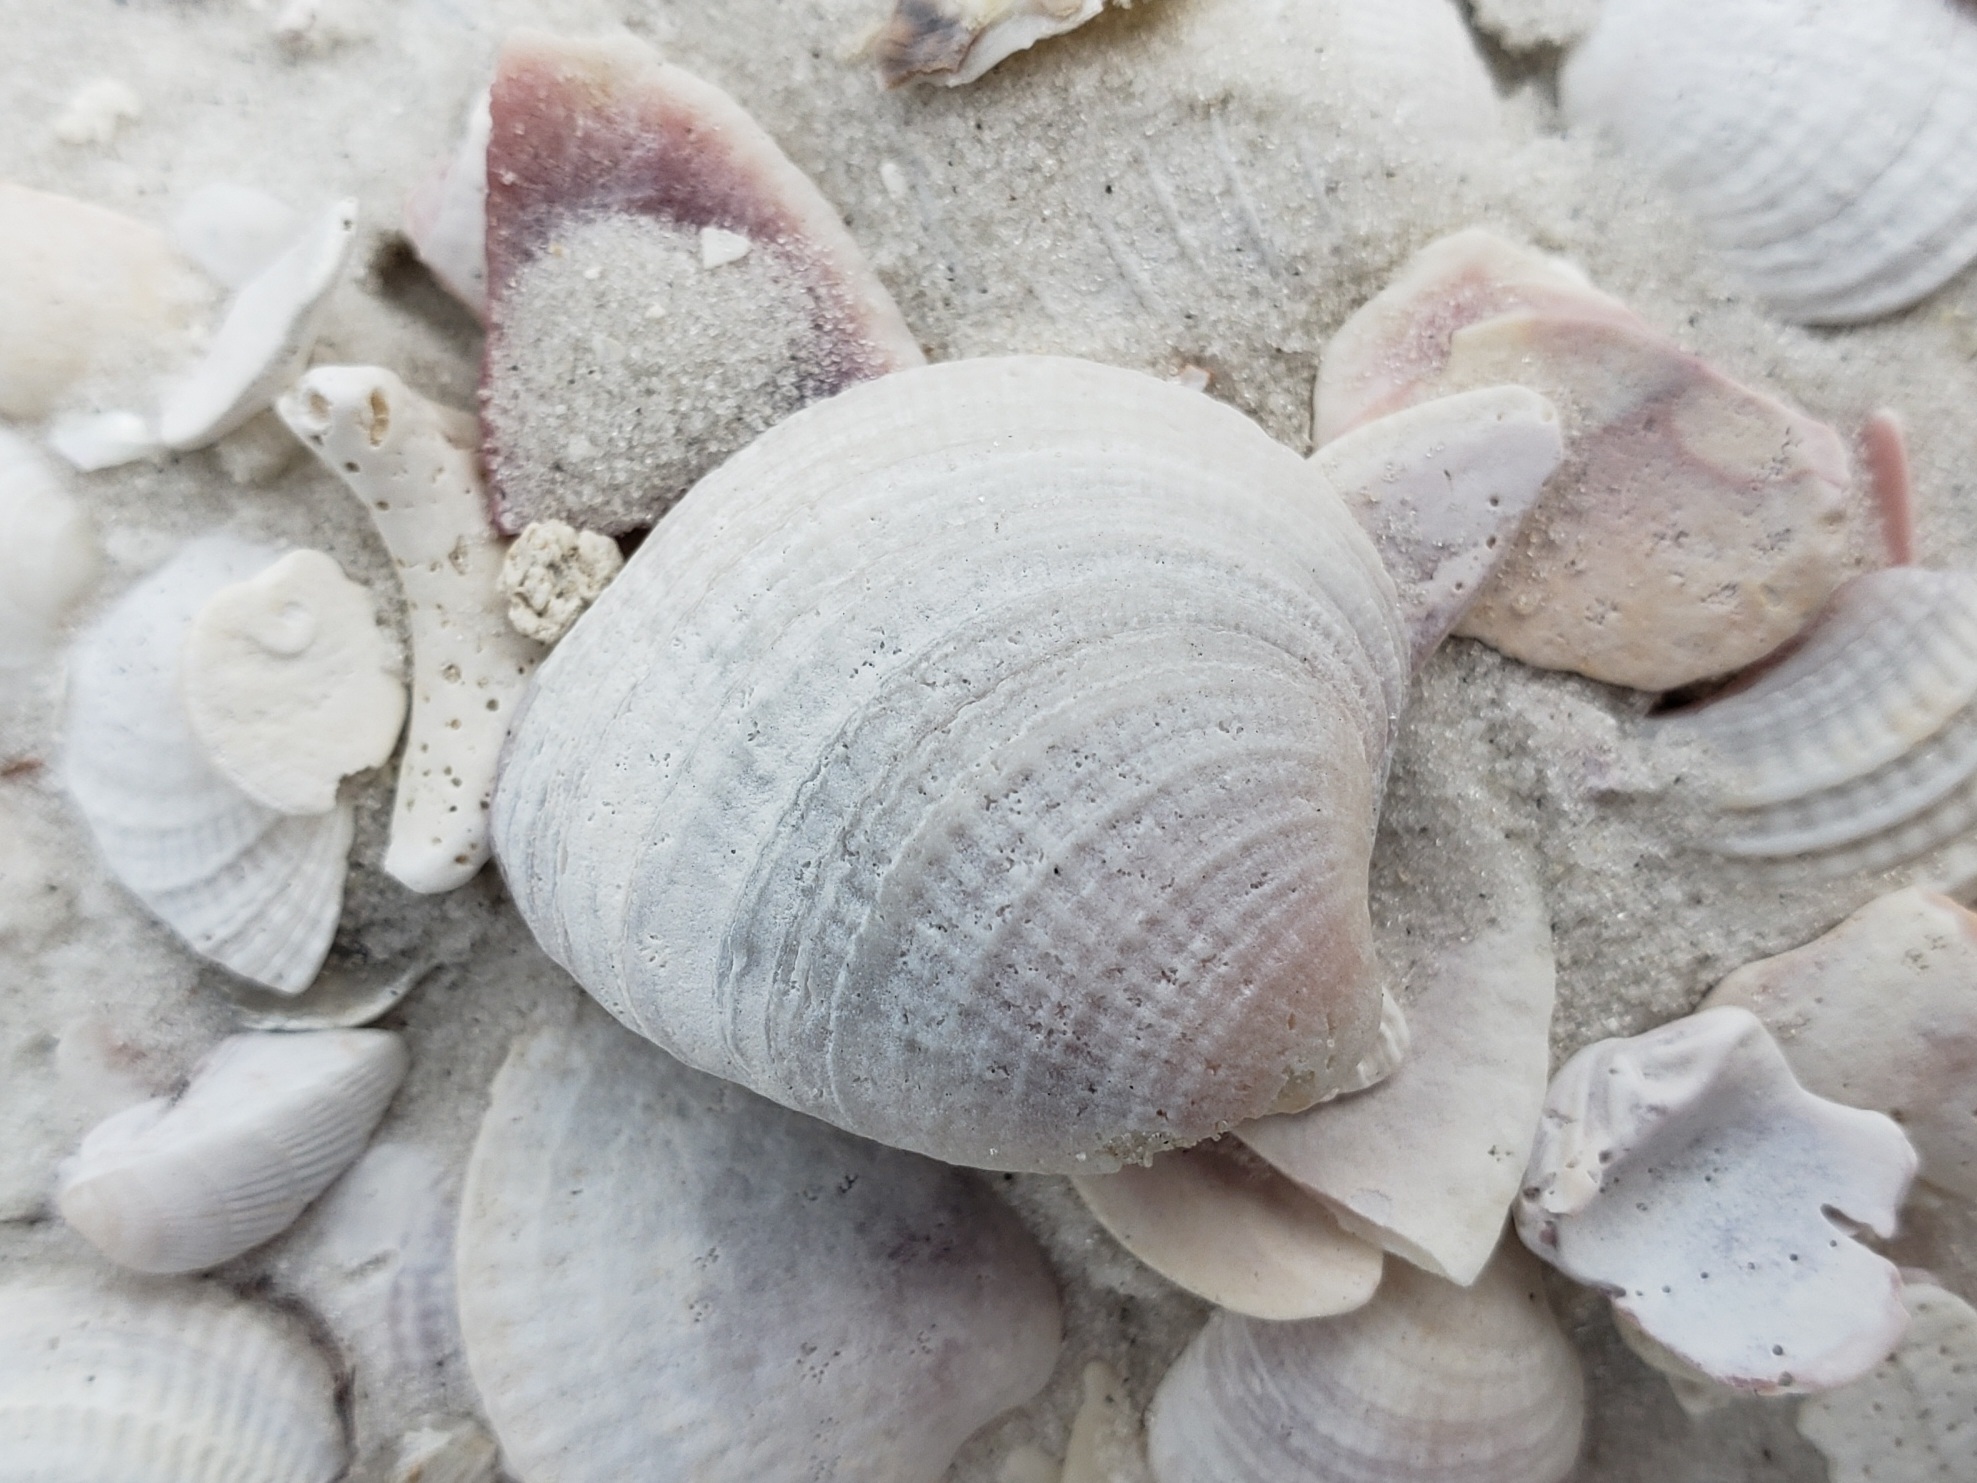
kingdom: Animalia
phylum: Mollusca
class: Bivalvia
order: Venerida
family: Veneridae
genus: Chione
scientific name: Chione elevata
